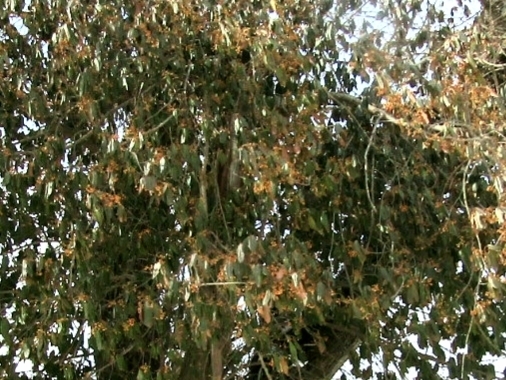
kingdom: Plantae
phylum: Tracheophyta
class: Magnoliopsida
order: Celastrales
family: Celastraceae
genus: Euonymus
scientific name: Euonymus fortunei
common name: Climbing euonymus
